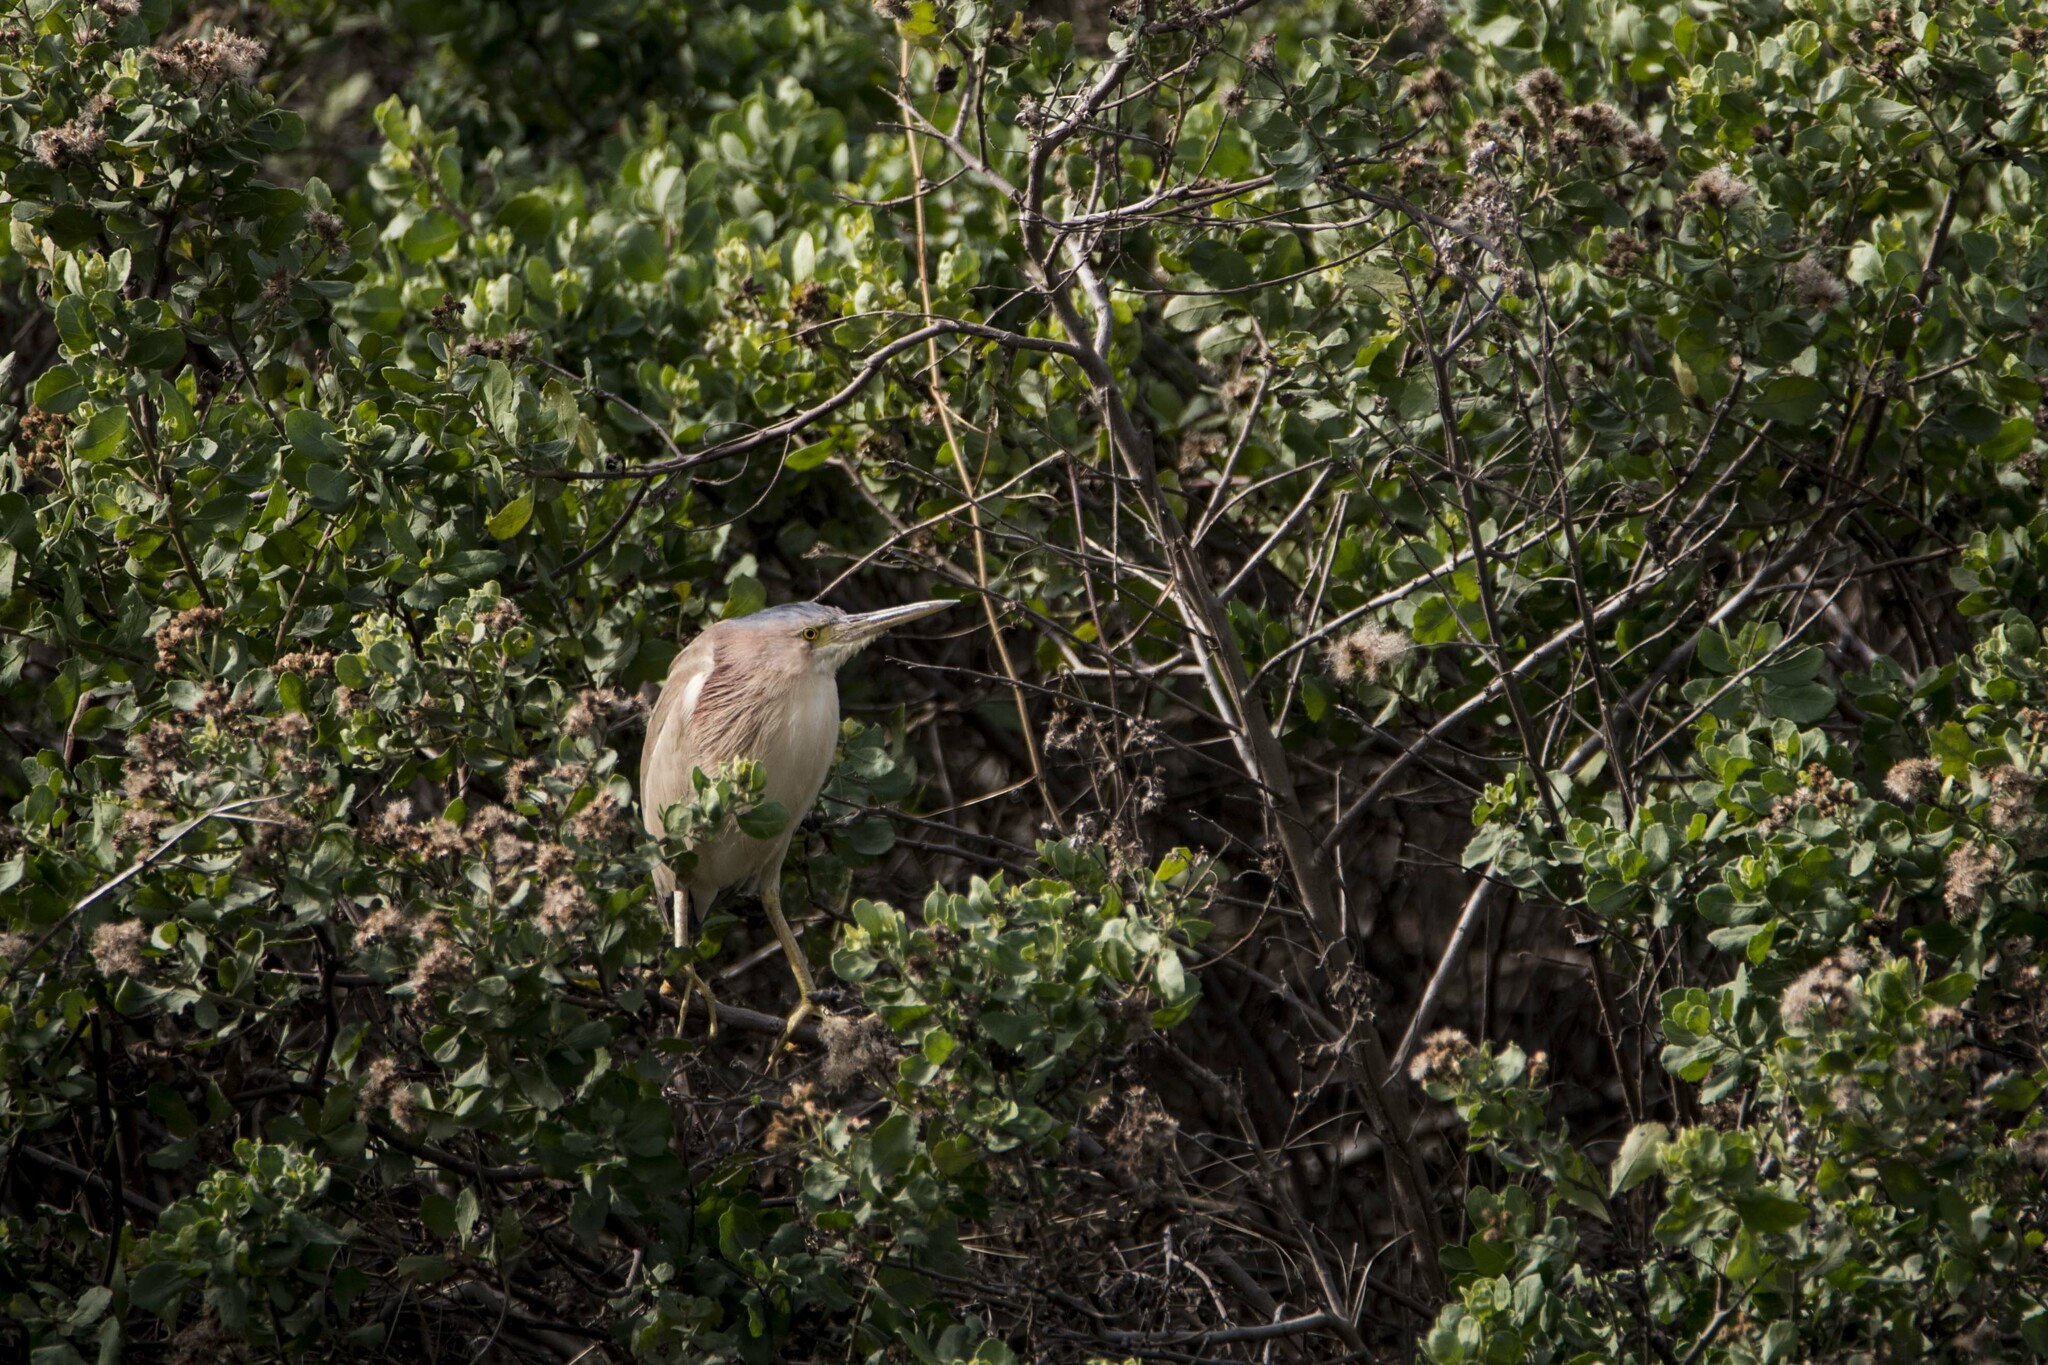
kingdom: Animalia
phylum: Chordata
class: Aves
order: Pelecaniformes
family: Ardeidae
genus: Ixobrychus
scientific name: Ixobrychus sinensis
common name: Yellow bittern
